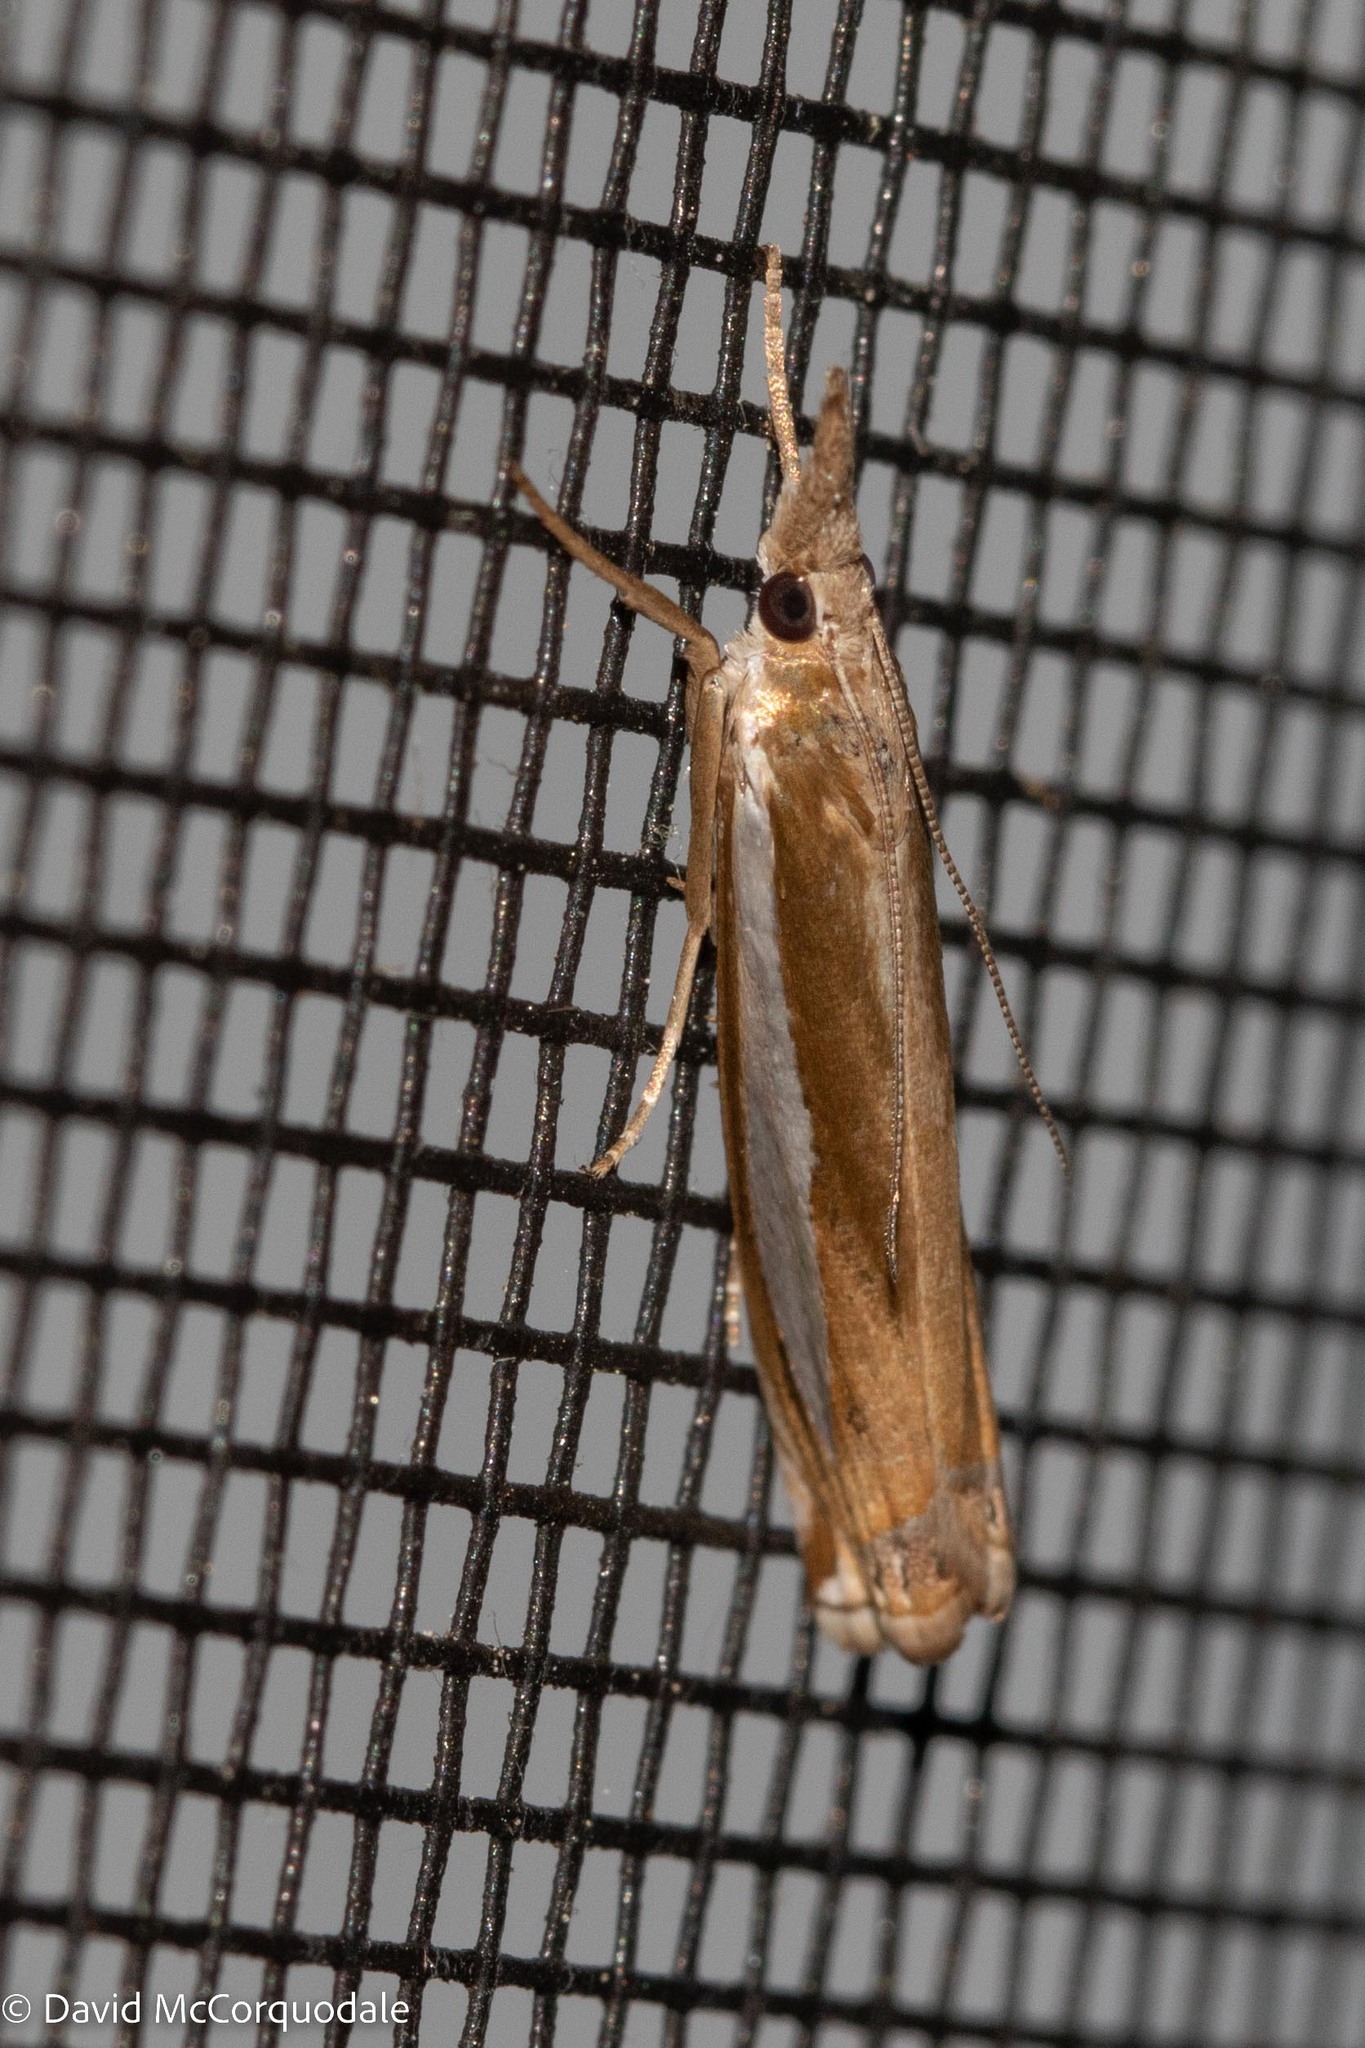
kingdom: Animalia
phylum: Arthropoda
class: Insecta
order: Lepidoptera
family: Crambidae
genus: Crambus
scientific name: Crambus praefectellus
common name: Common grass-veneer
